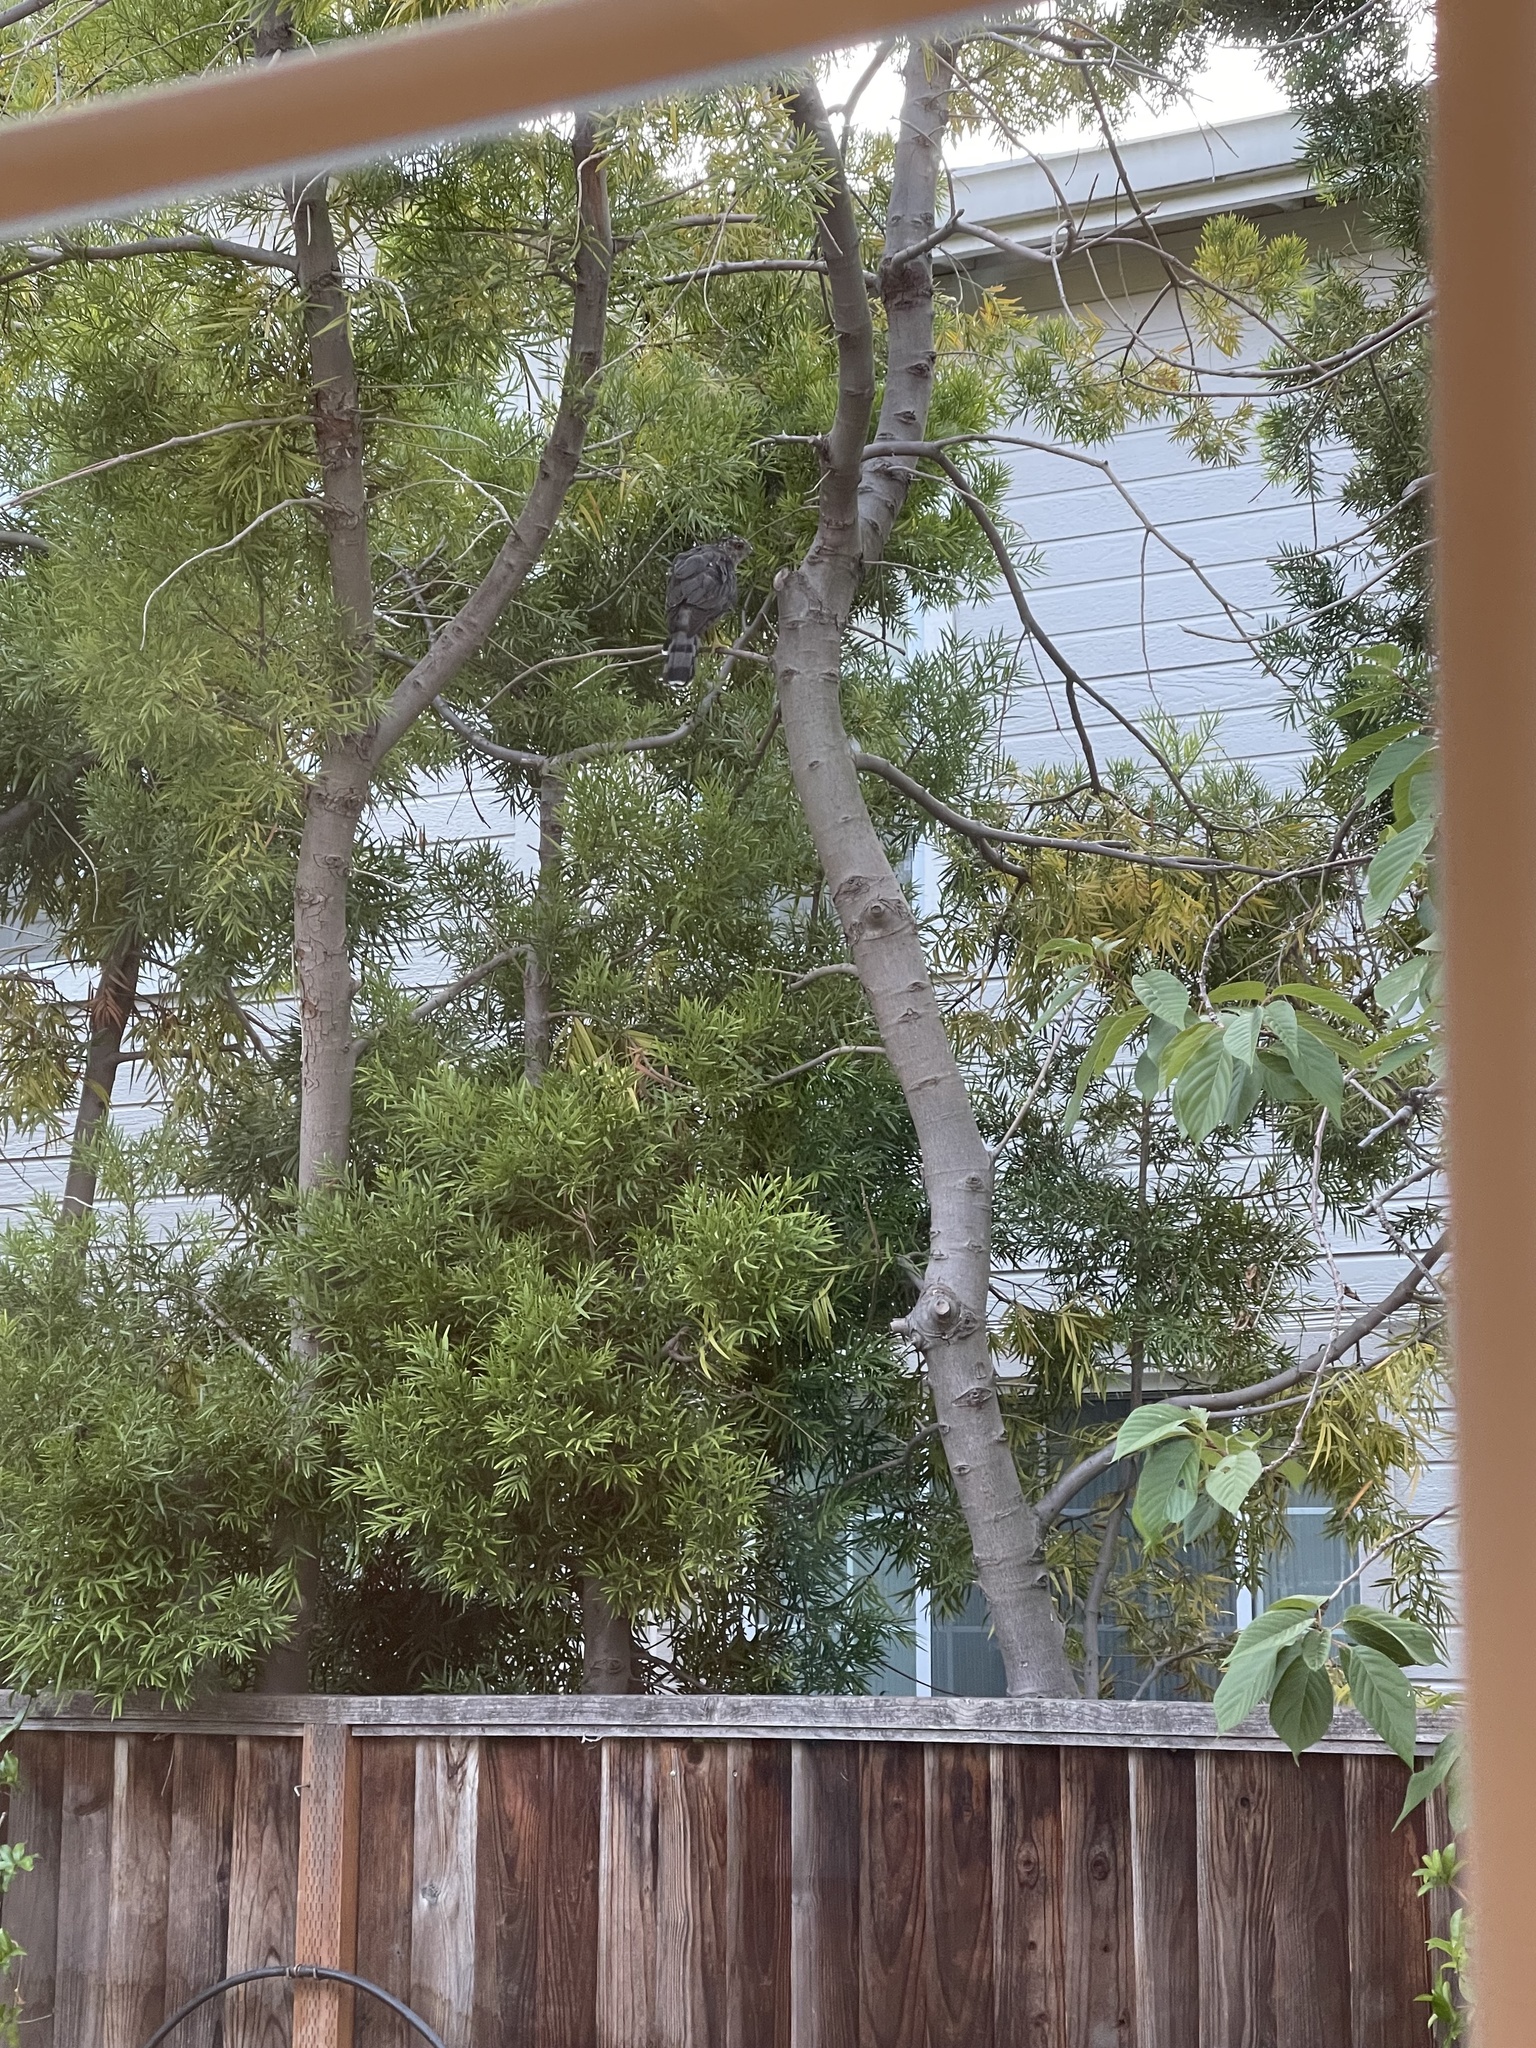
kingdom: Animalia
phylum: Chordata
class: Aves
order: Accipitriformes
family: Accipitridae
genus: Accipiter
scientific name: Accipiter cooperii
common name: Cooper's hawk
